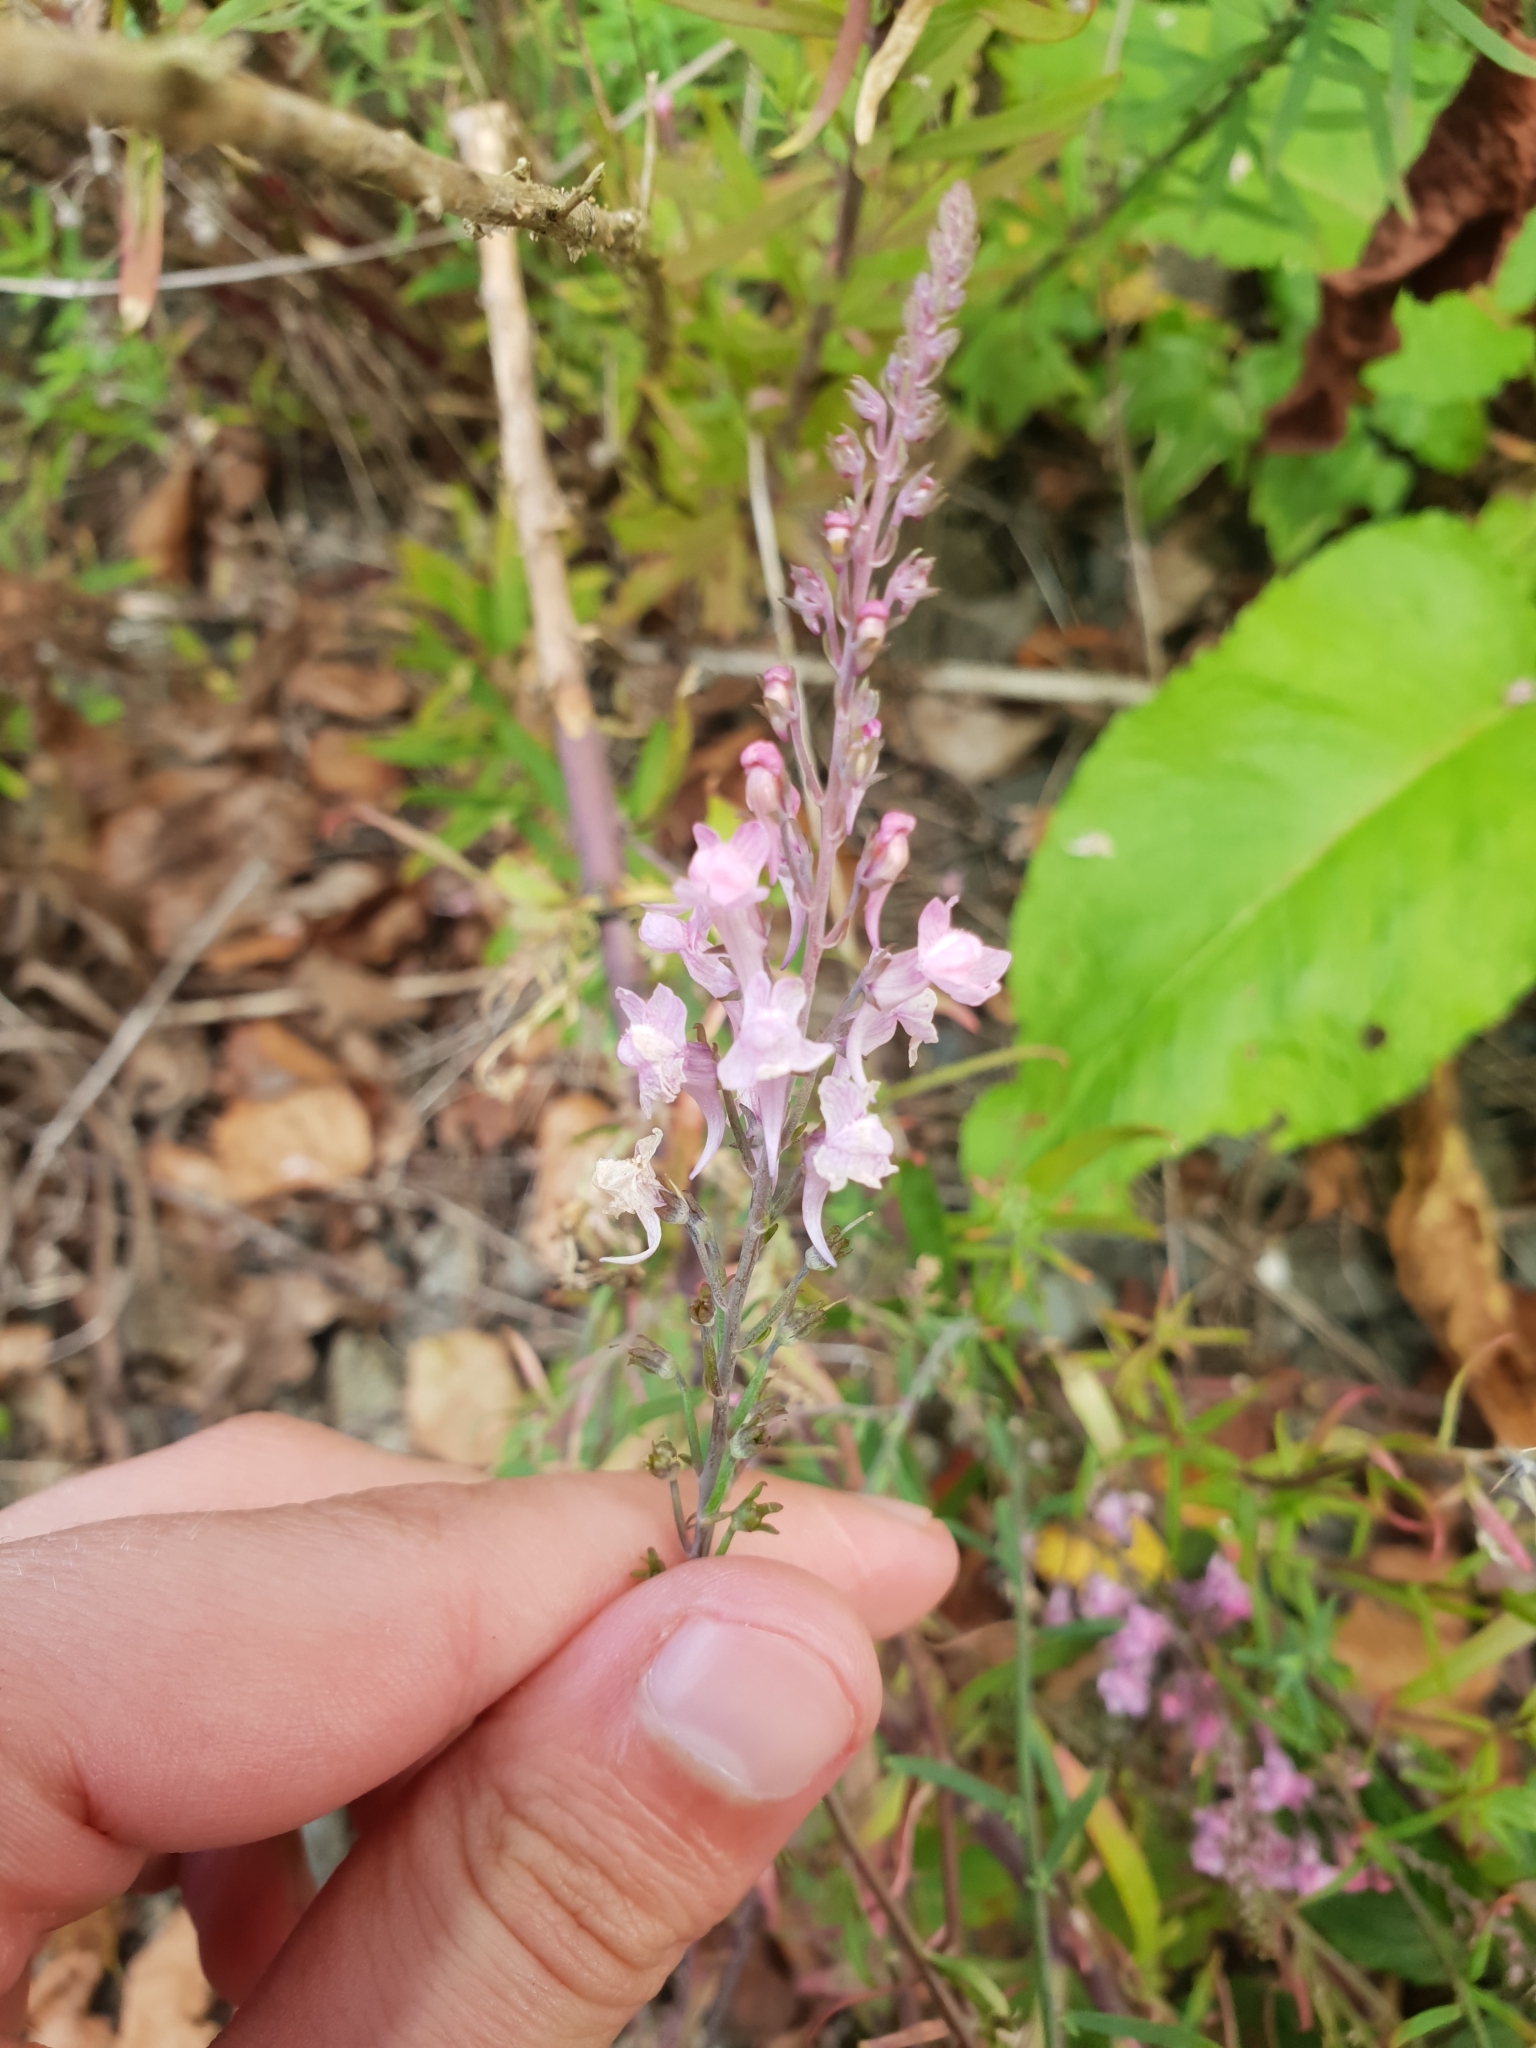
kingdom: Plantae
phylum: Tracheophyta
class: Magnoliopsida
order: Lamiales
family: Plantaginaceae
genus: Linaria
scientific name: Linaria purpurea
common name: Purple toadflax
